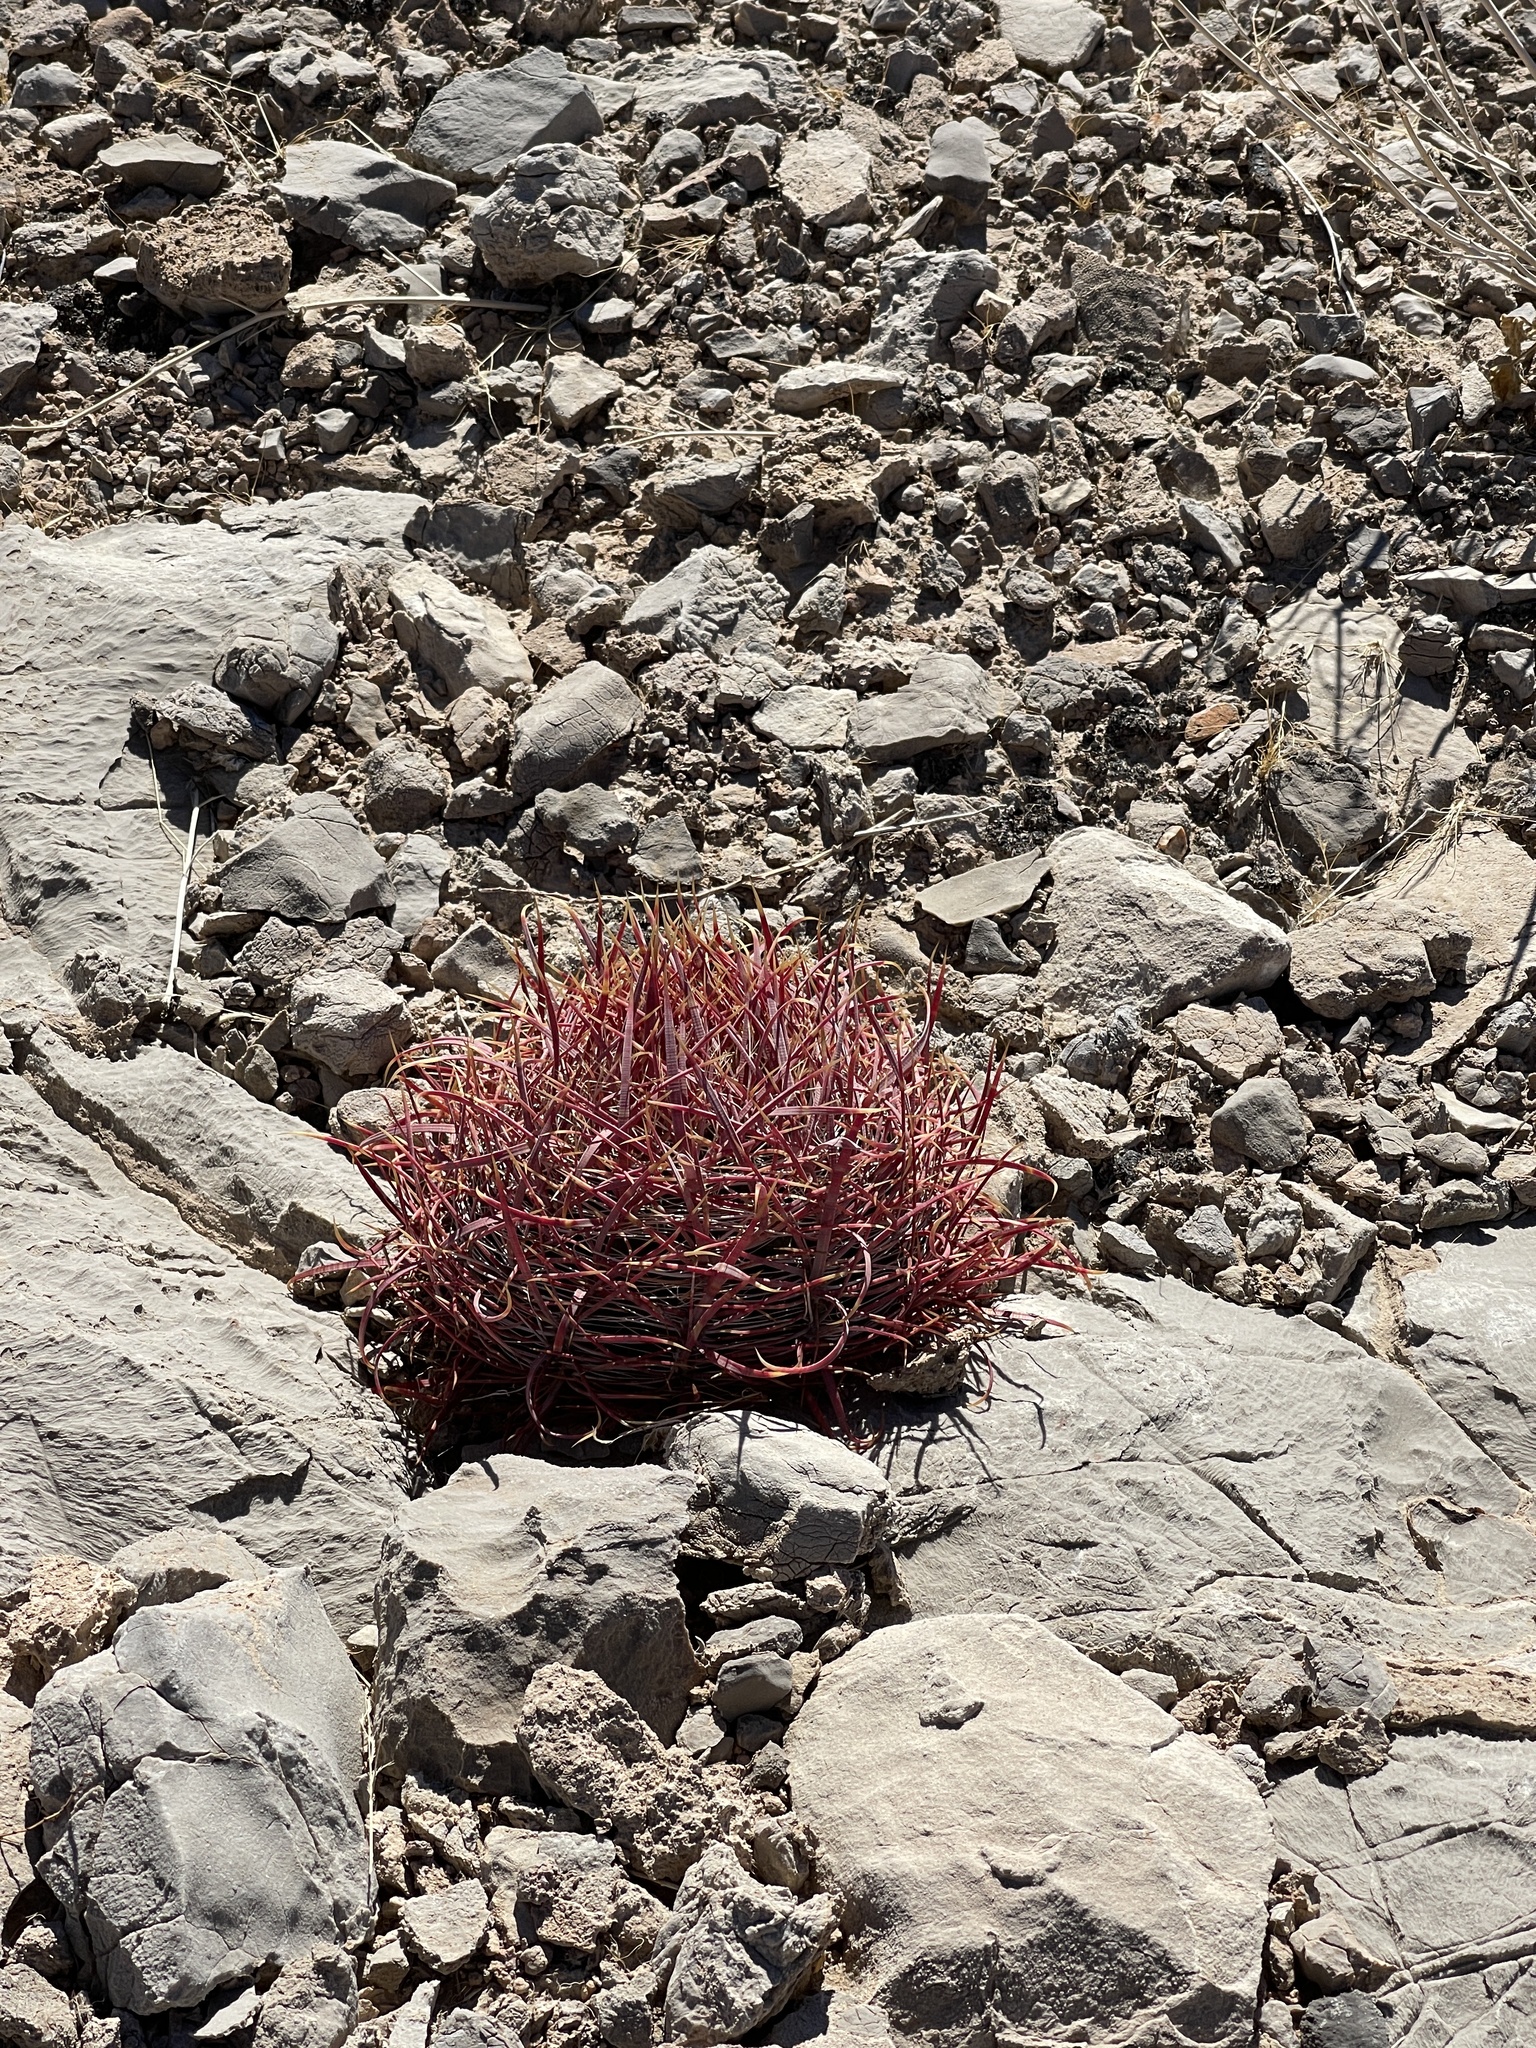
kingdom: Plantae
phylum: Tracheophyta
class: Magnoliopsida
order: Caryophyllales
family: Cactaceae
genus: Ferocactus
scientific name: Ferocactus cylindraceus
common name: California barrel cactus
